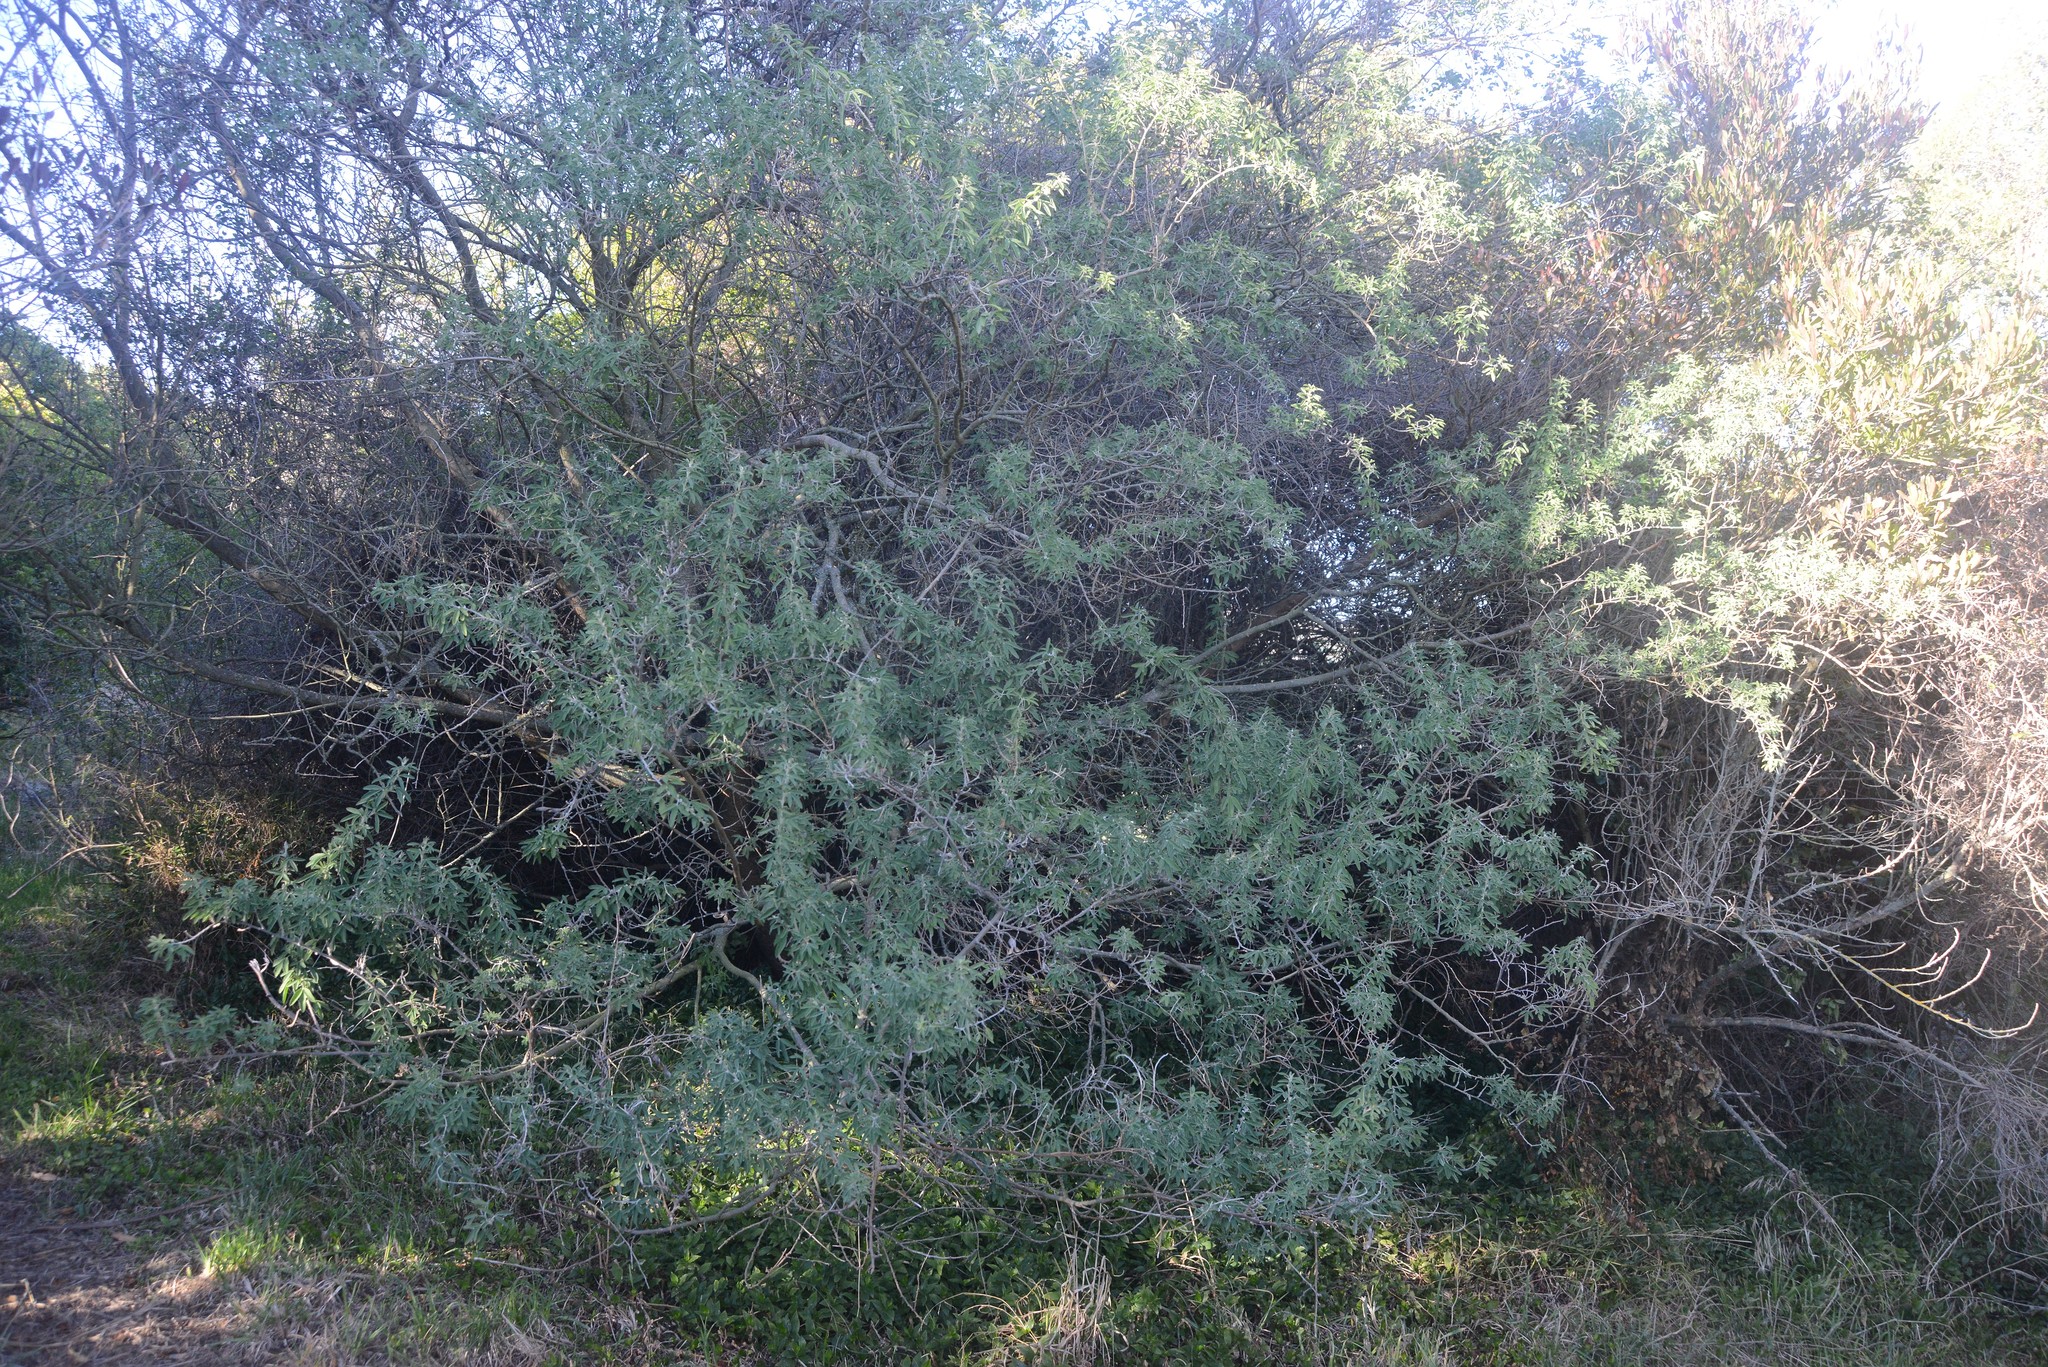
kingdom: Plantae
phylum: Tracheophyta
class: Magnoliopsida
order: Fabales
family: Fabaceae
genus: Chamaecytisus
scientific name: Chamaecytisus prolifer
